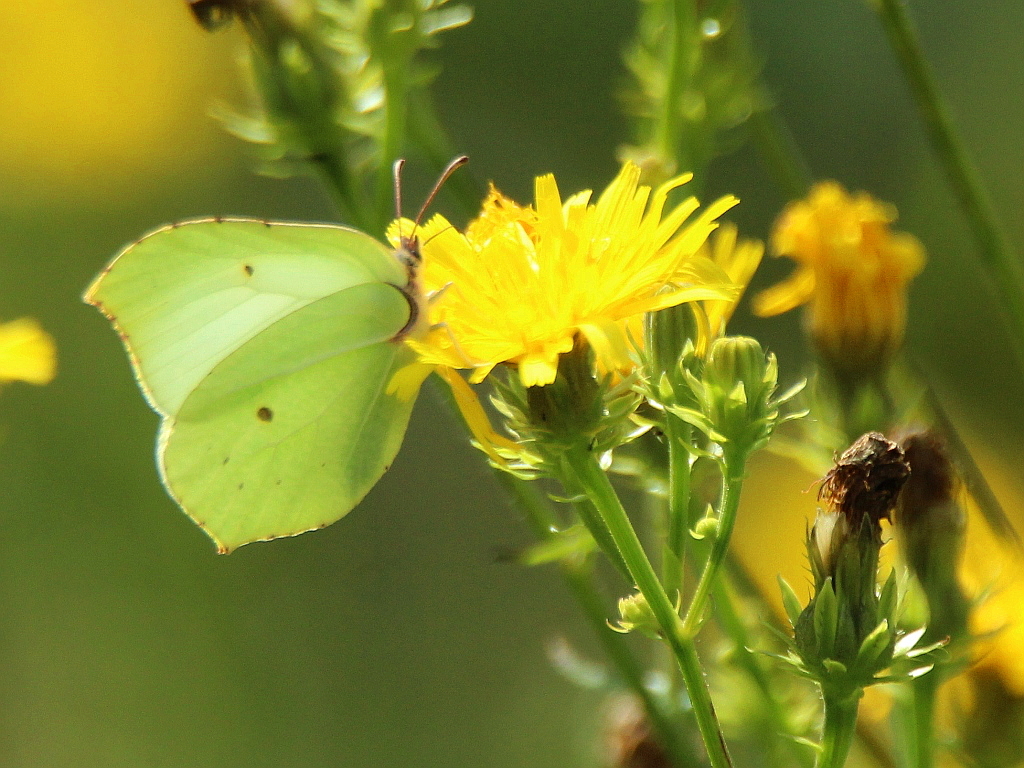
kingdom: Animalia
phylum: Arthropoda
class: Insecta
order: Lepidoptera
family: Pieridae
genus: Gonepteryx
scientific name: Gonepteryx rhamni
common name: Brimstone
